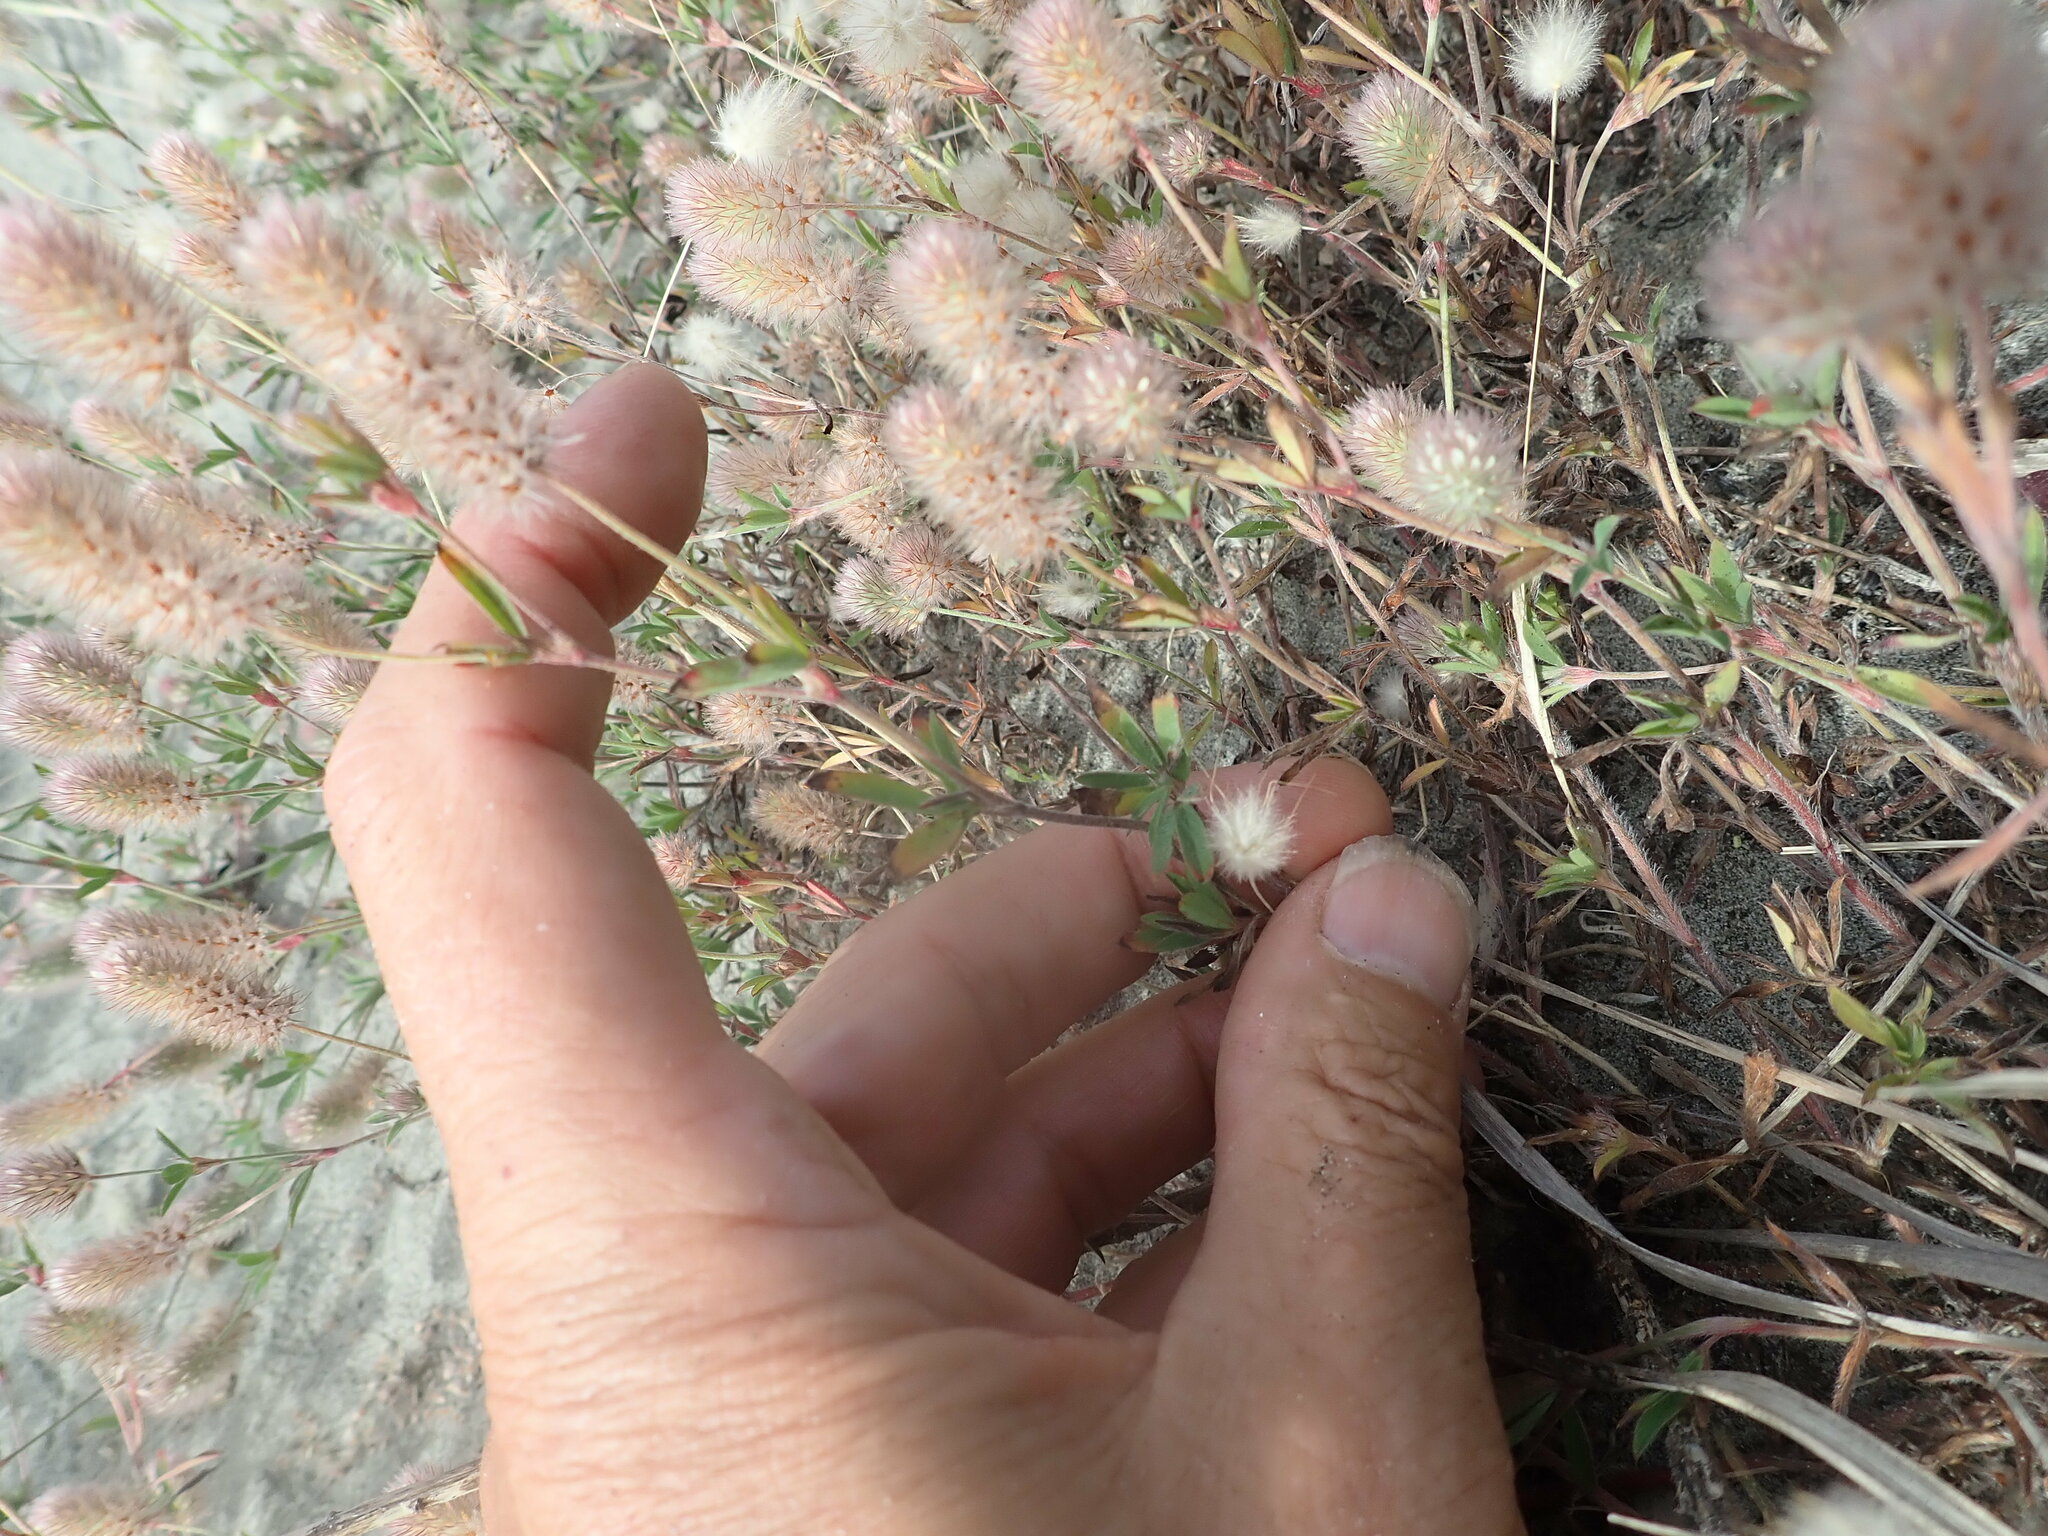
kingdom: Plantae
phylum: Tracheophyta
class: Magnoliopsida
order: Fabales
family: Fabaceae
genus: Trifolium
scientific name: Trifolium arvense
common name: Hare's-foot clover
